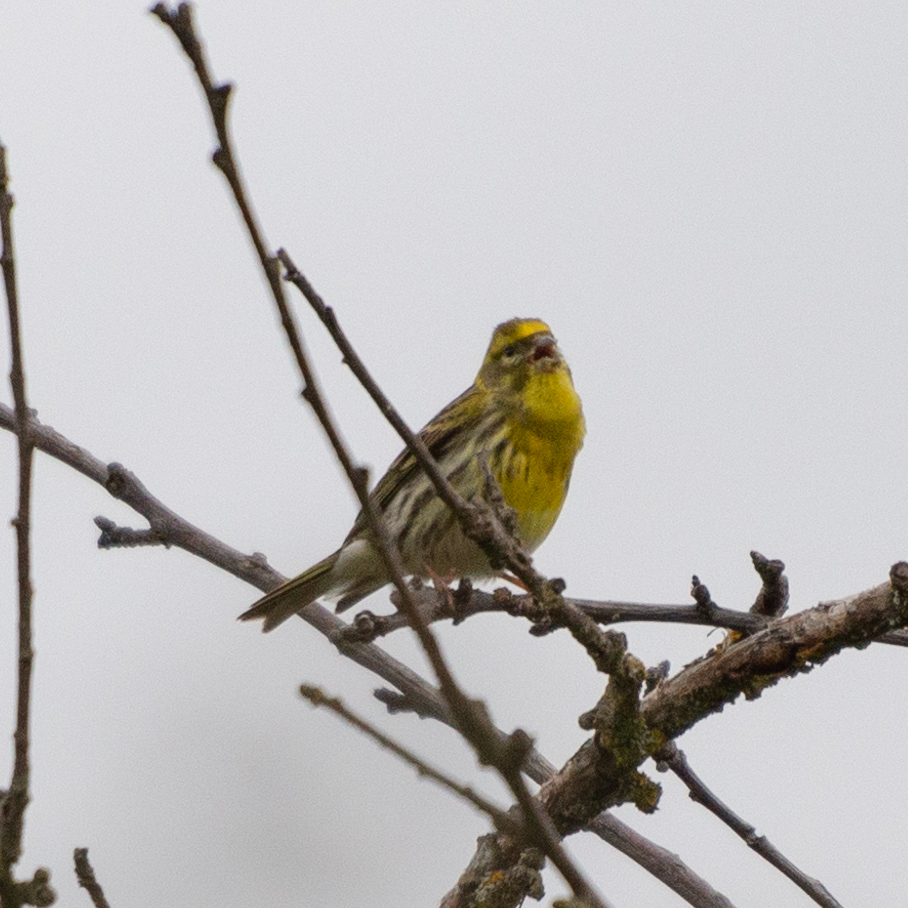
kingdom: Animalia
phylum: Chordata
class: Aves
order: Passeriformes
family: Fringillidae
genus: Serinus
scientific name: Serinus serinus
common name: European serin
